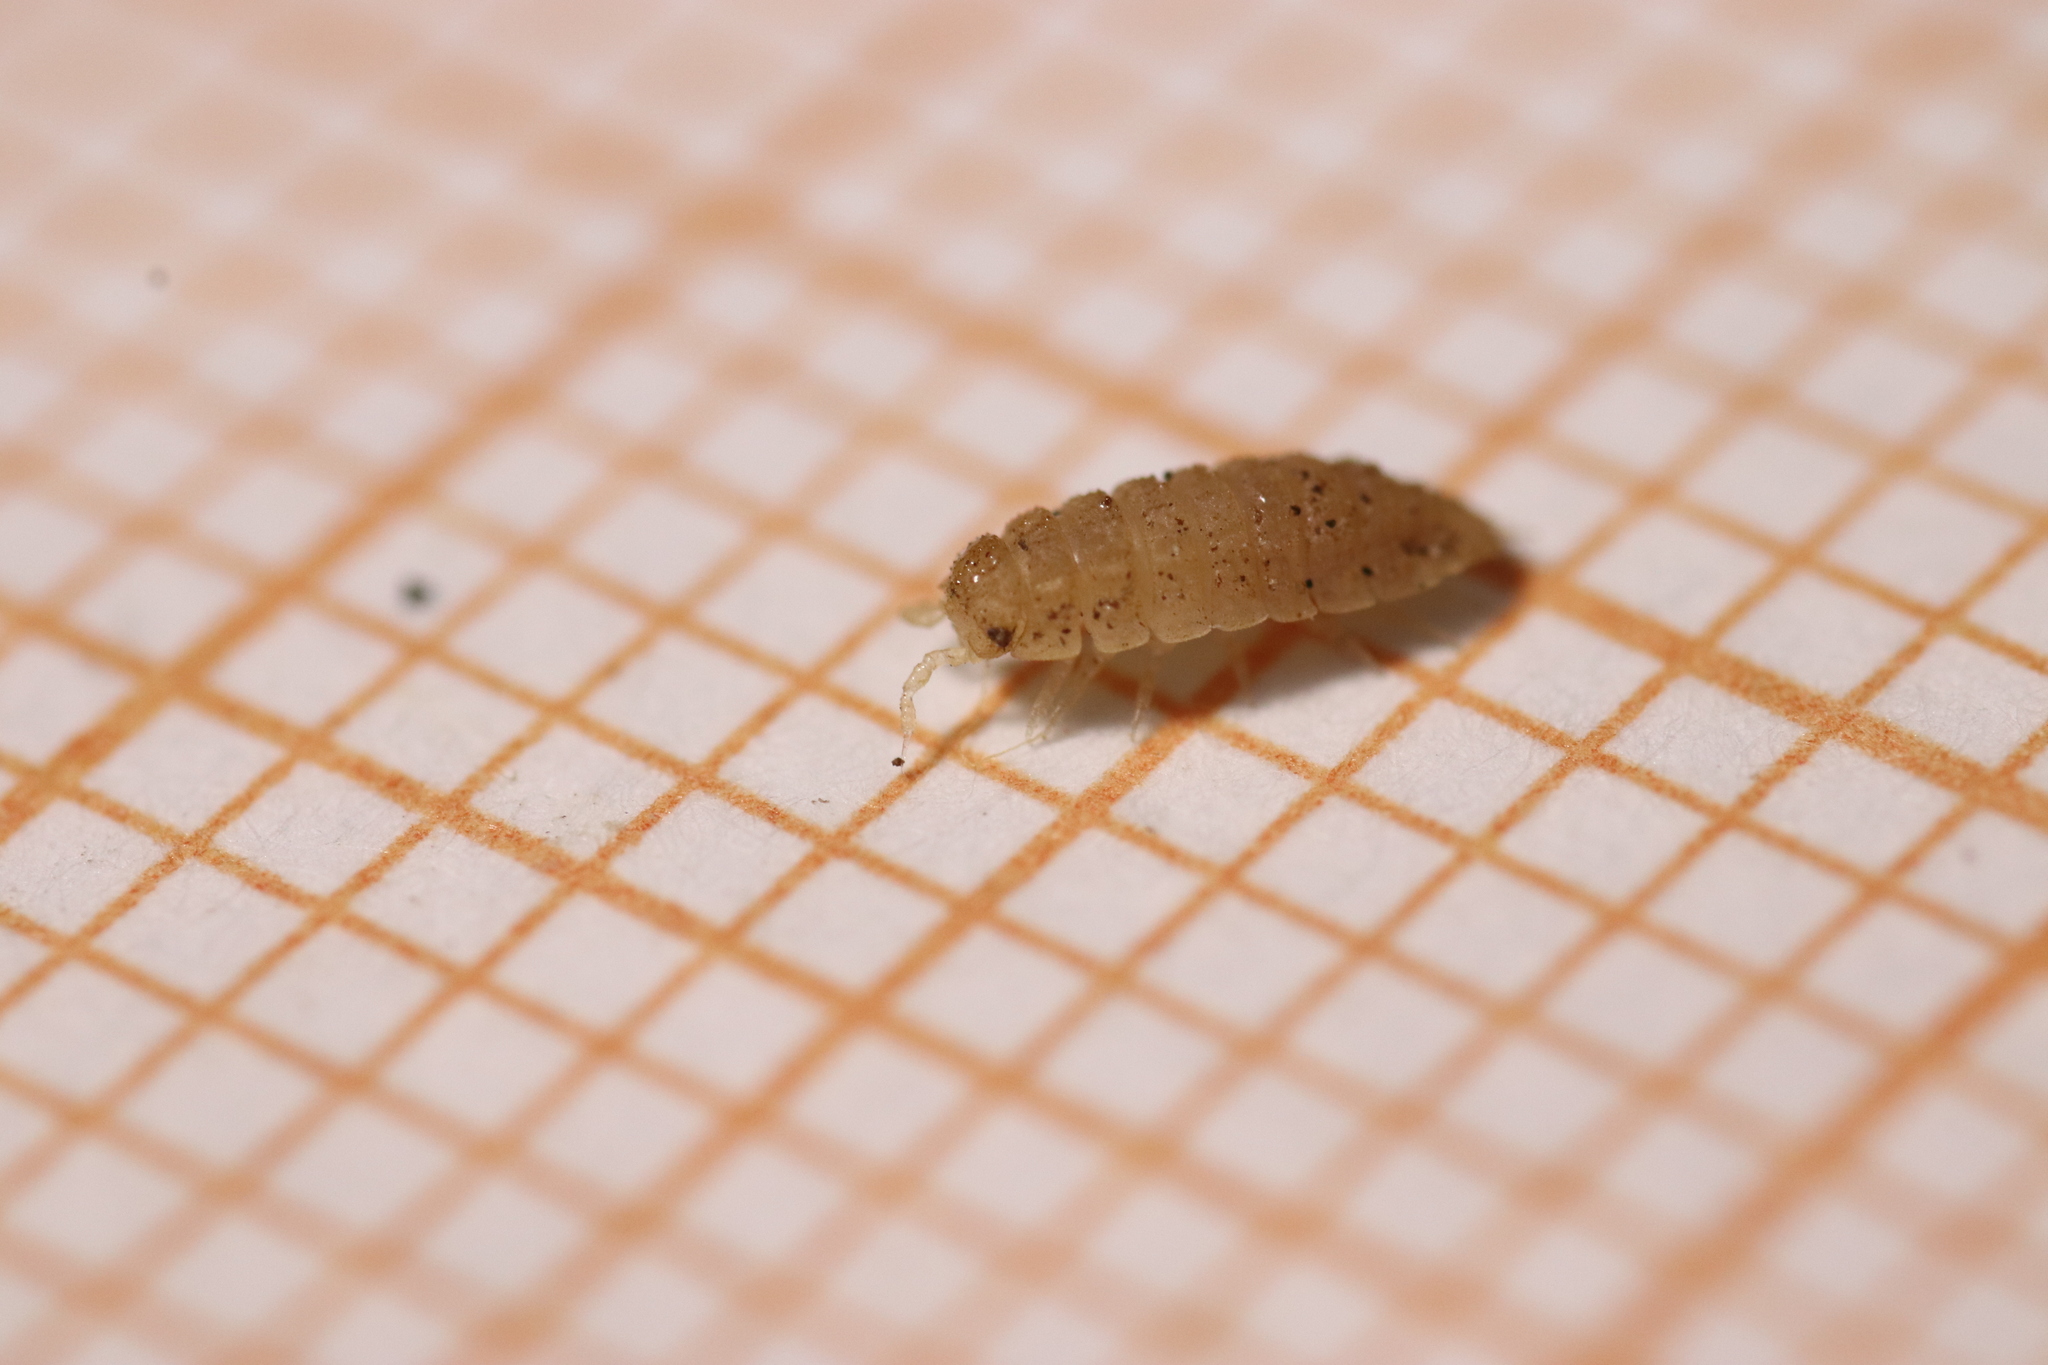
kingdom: Animalia
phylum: Arthropoda
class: Malacostraca
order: Isopoda
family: Trichoniscidae
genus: Haplophthalmus
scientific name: Haplophthalmus danicus
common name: Pillbug
